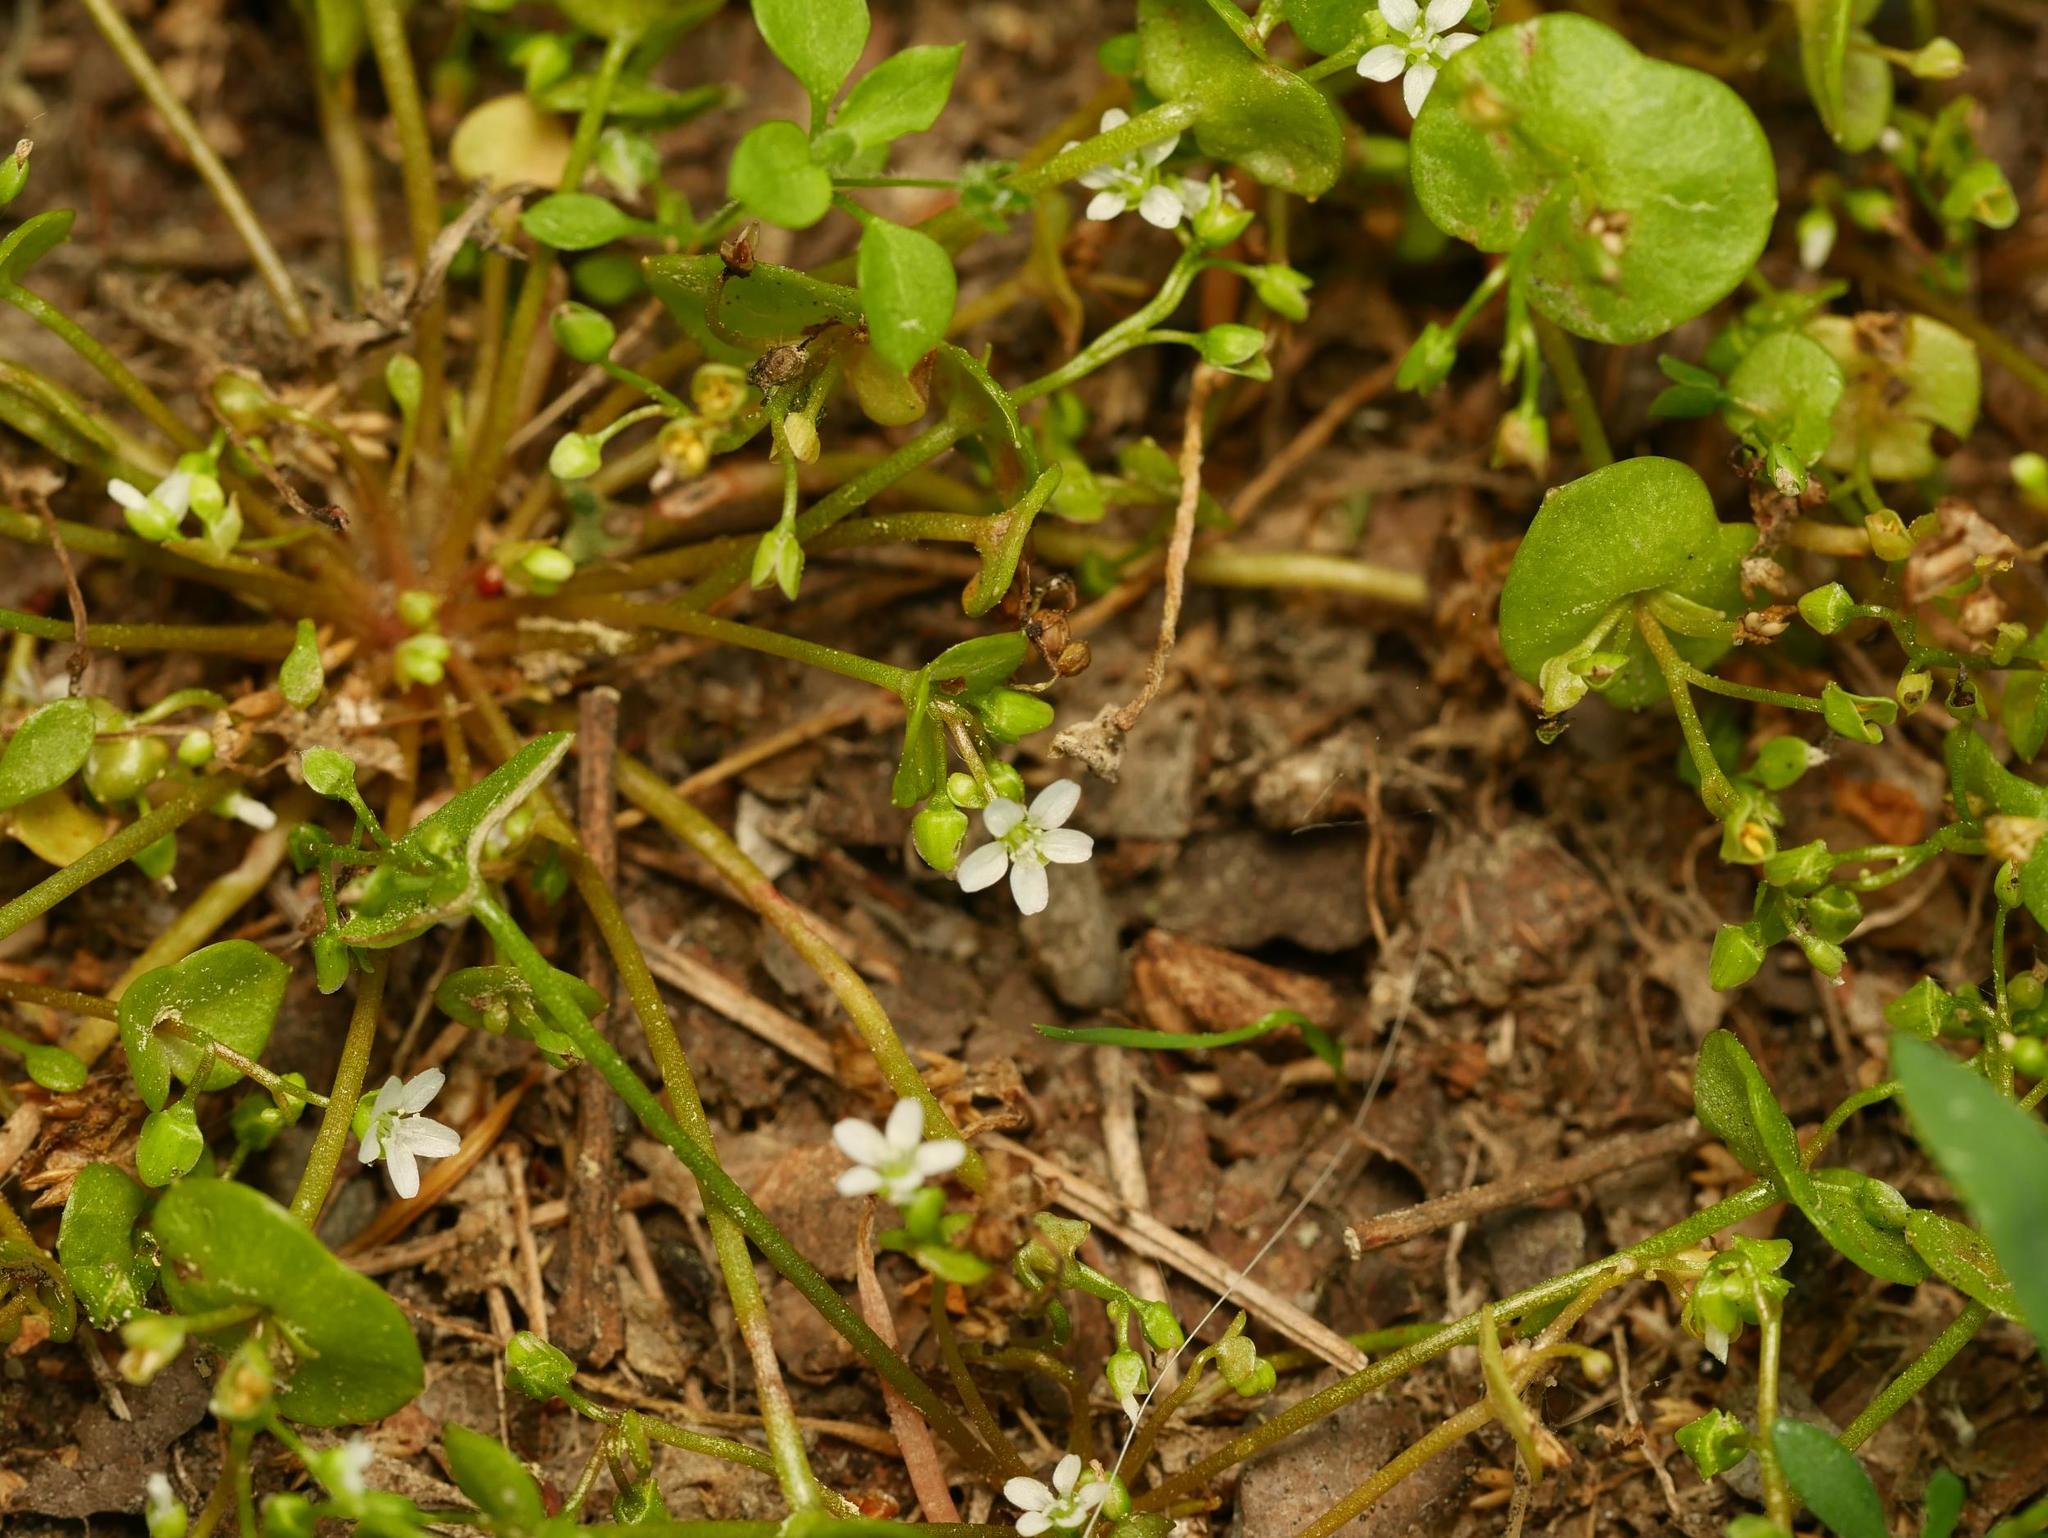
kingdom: Plantae
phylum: Tracheophyta
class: Magnoliopsida
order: Caryophyllales
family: Montiaceae
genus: Claytonia
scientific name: Claytonia perfoliata
